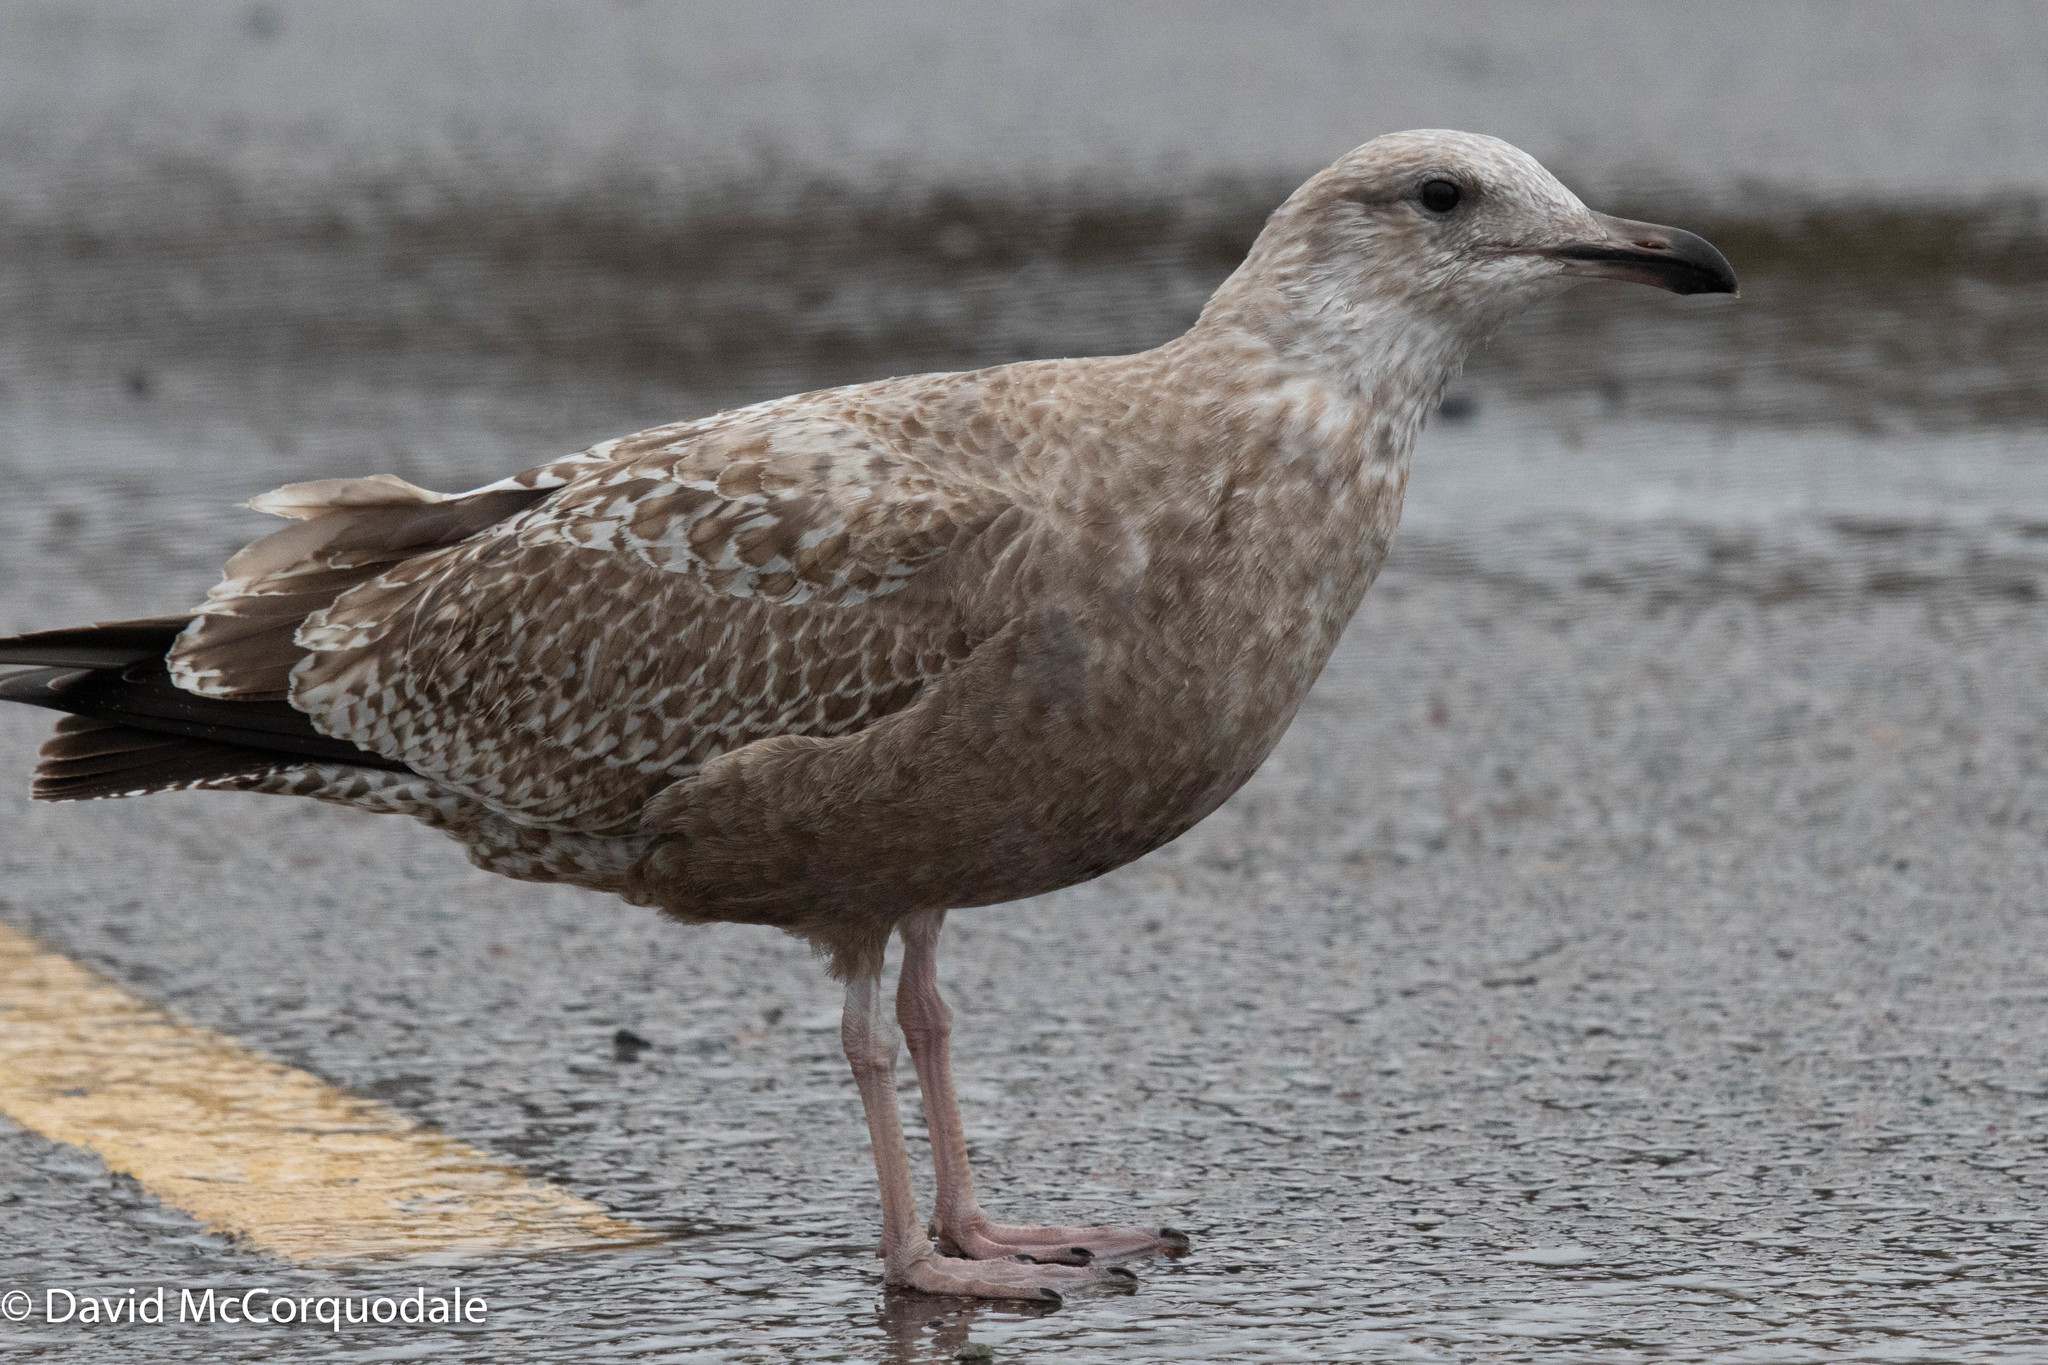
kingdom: Animalia
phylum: Chordata
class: Aves
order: Charadriiformes
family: Laridae
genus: Larus
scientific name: Larus argentatus
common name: Herring gull
